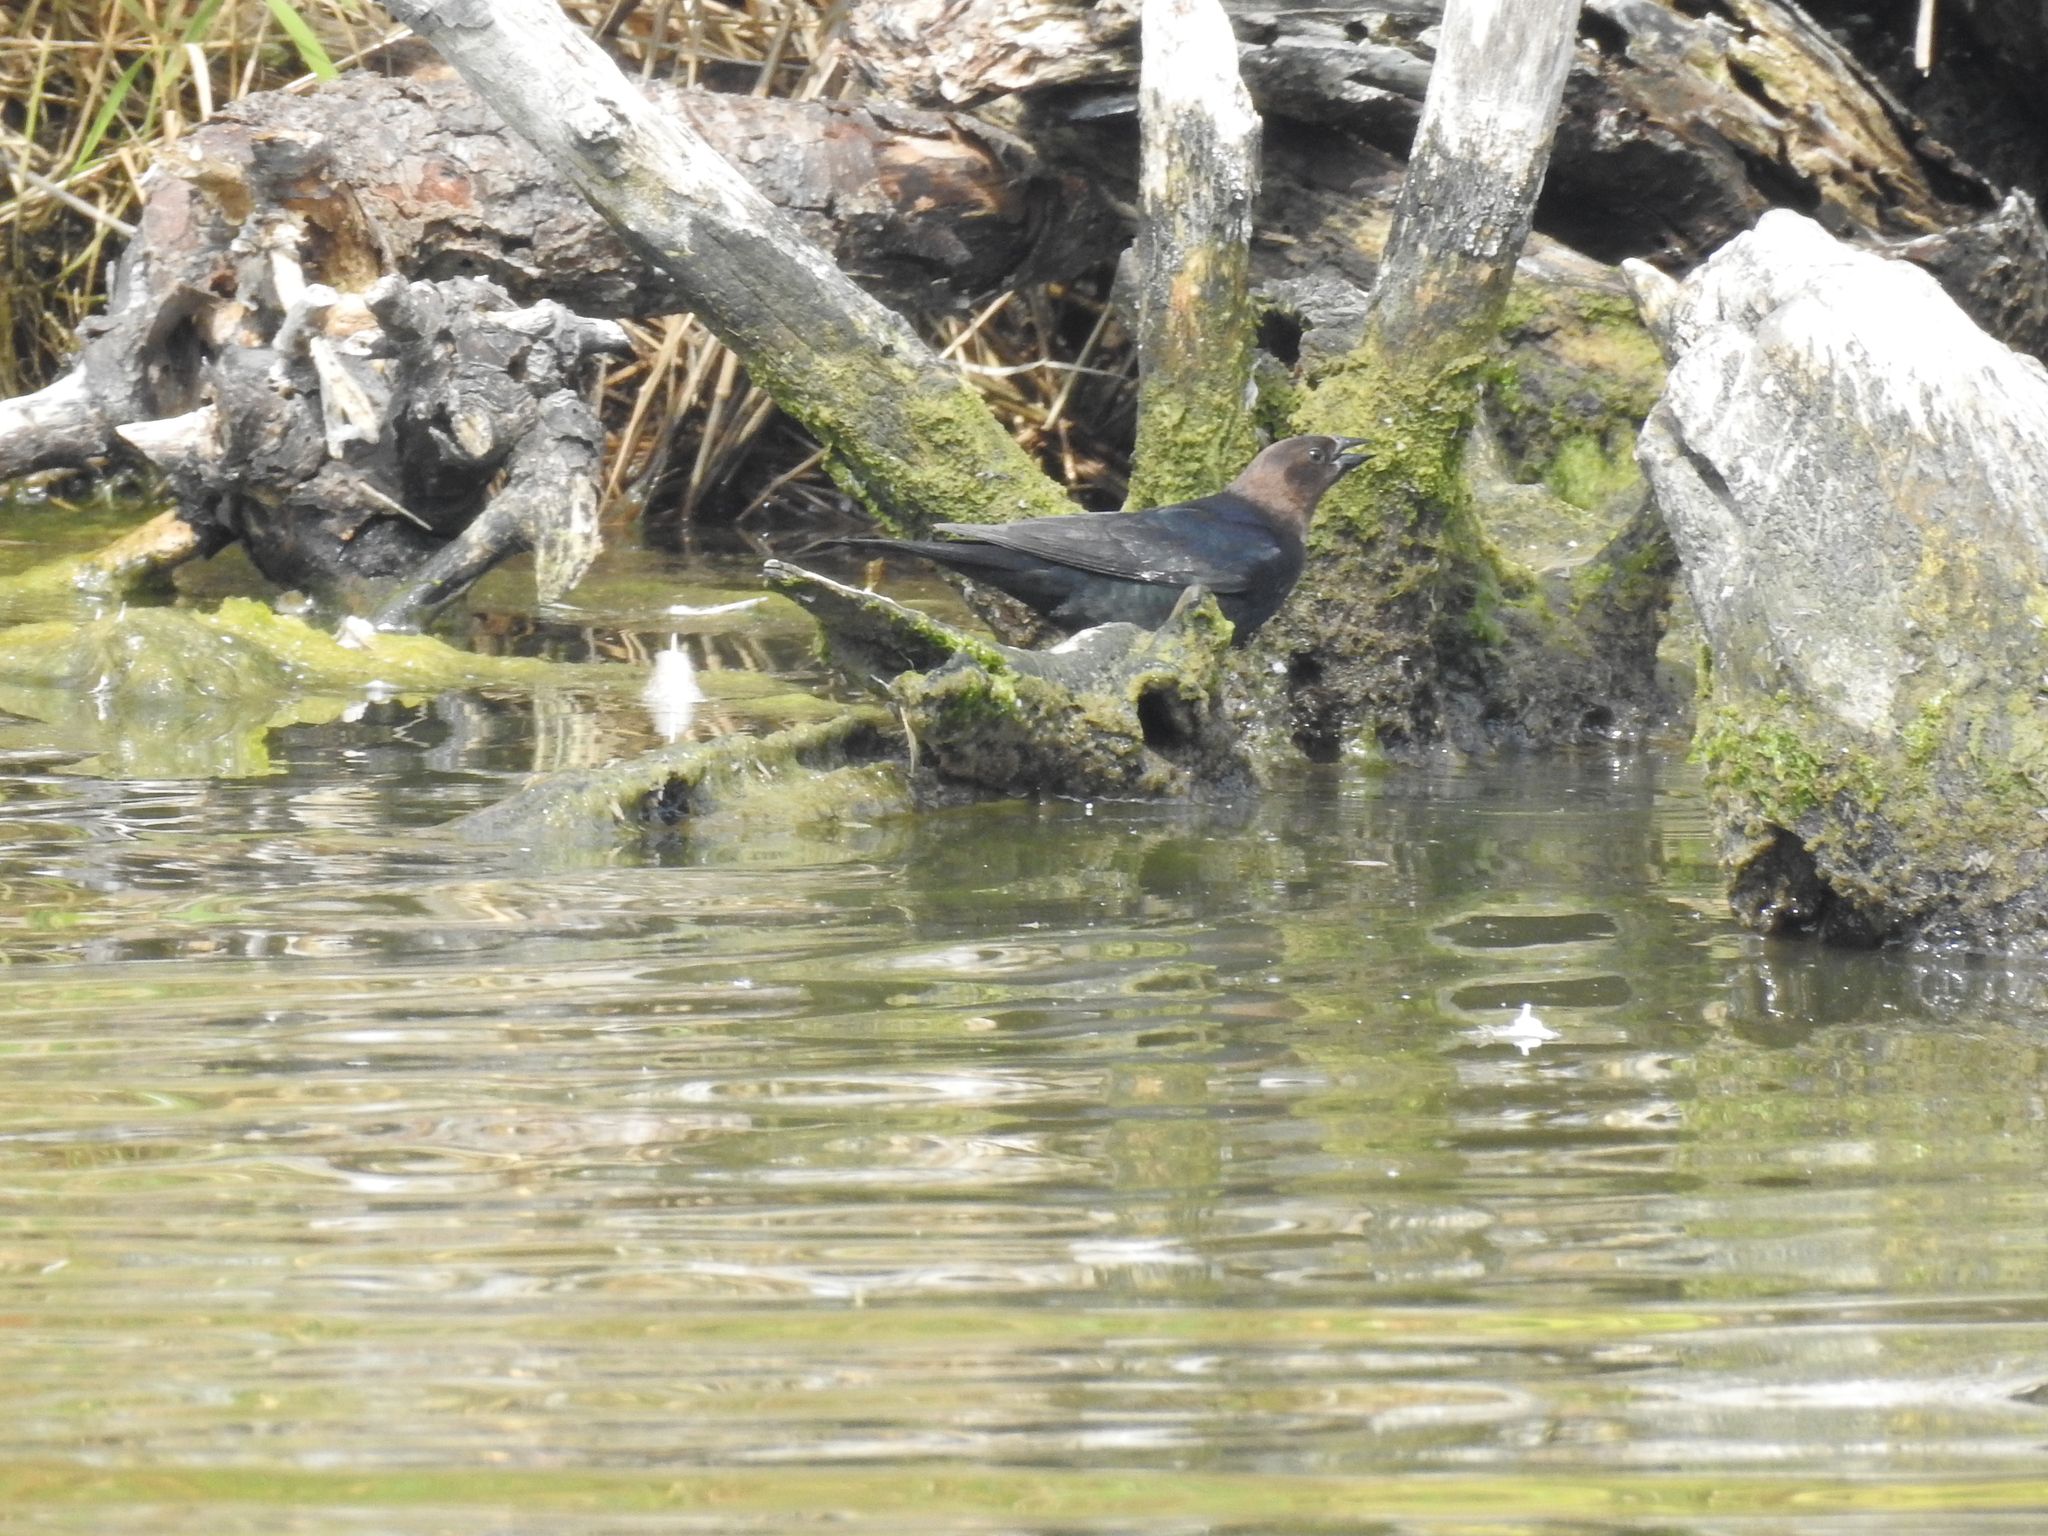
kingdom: Animalia
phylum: Chordata
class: Aves
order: Passeriformes
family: Icteridae
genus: Molothrus
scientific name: Molothrus ater
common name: Brown-headed cowbird
